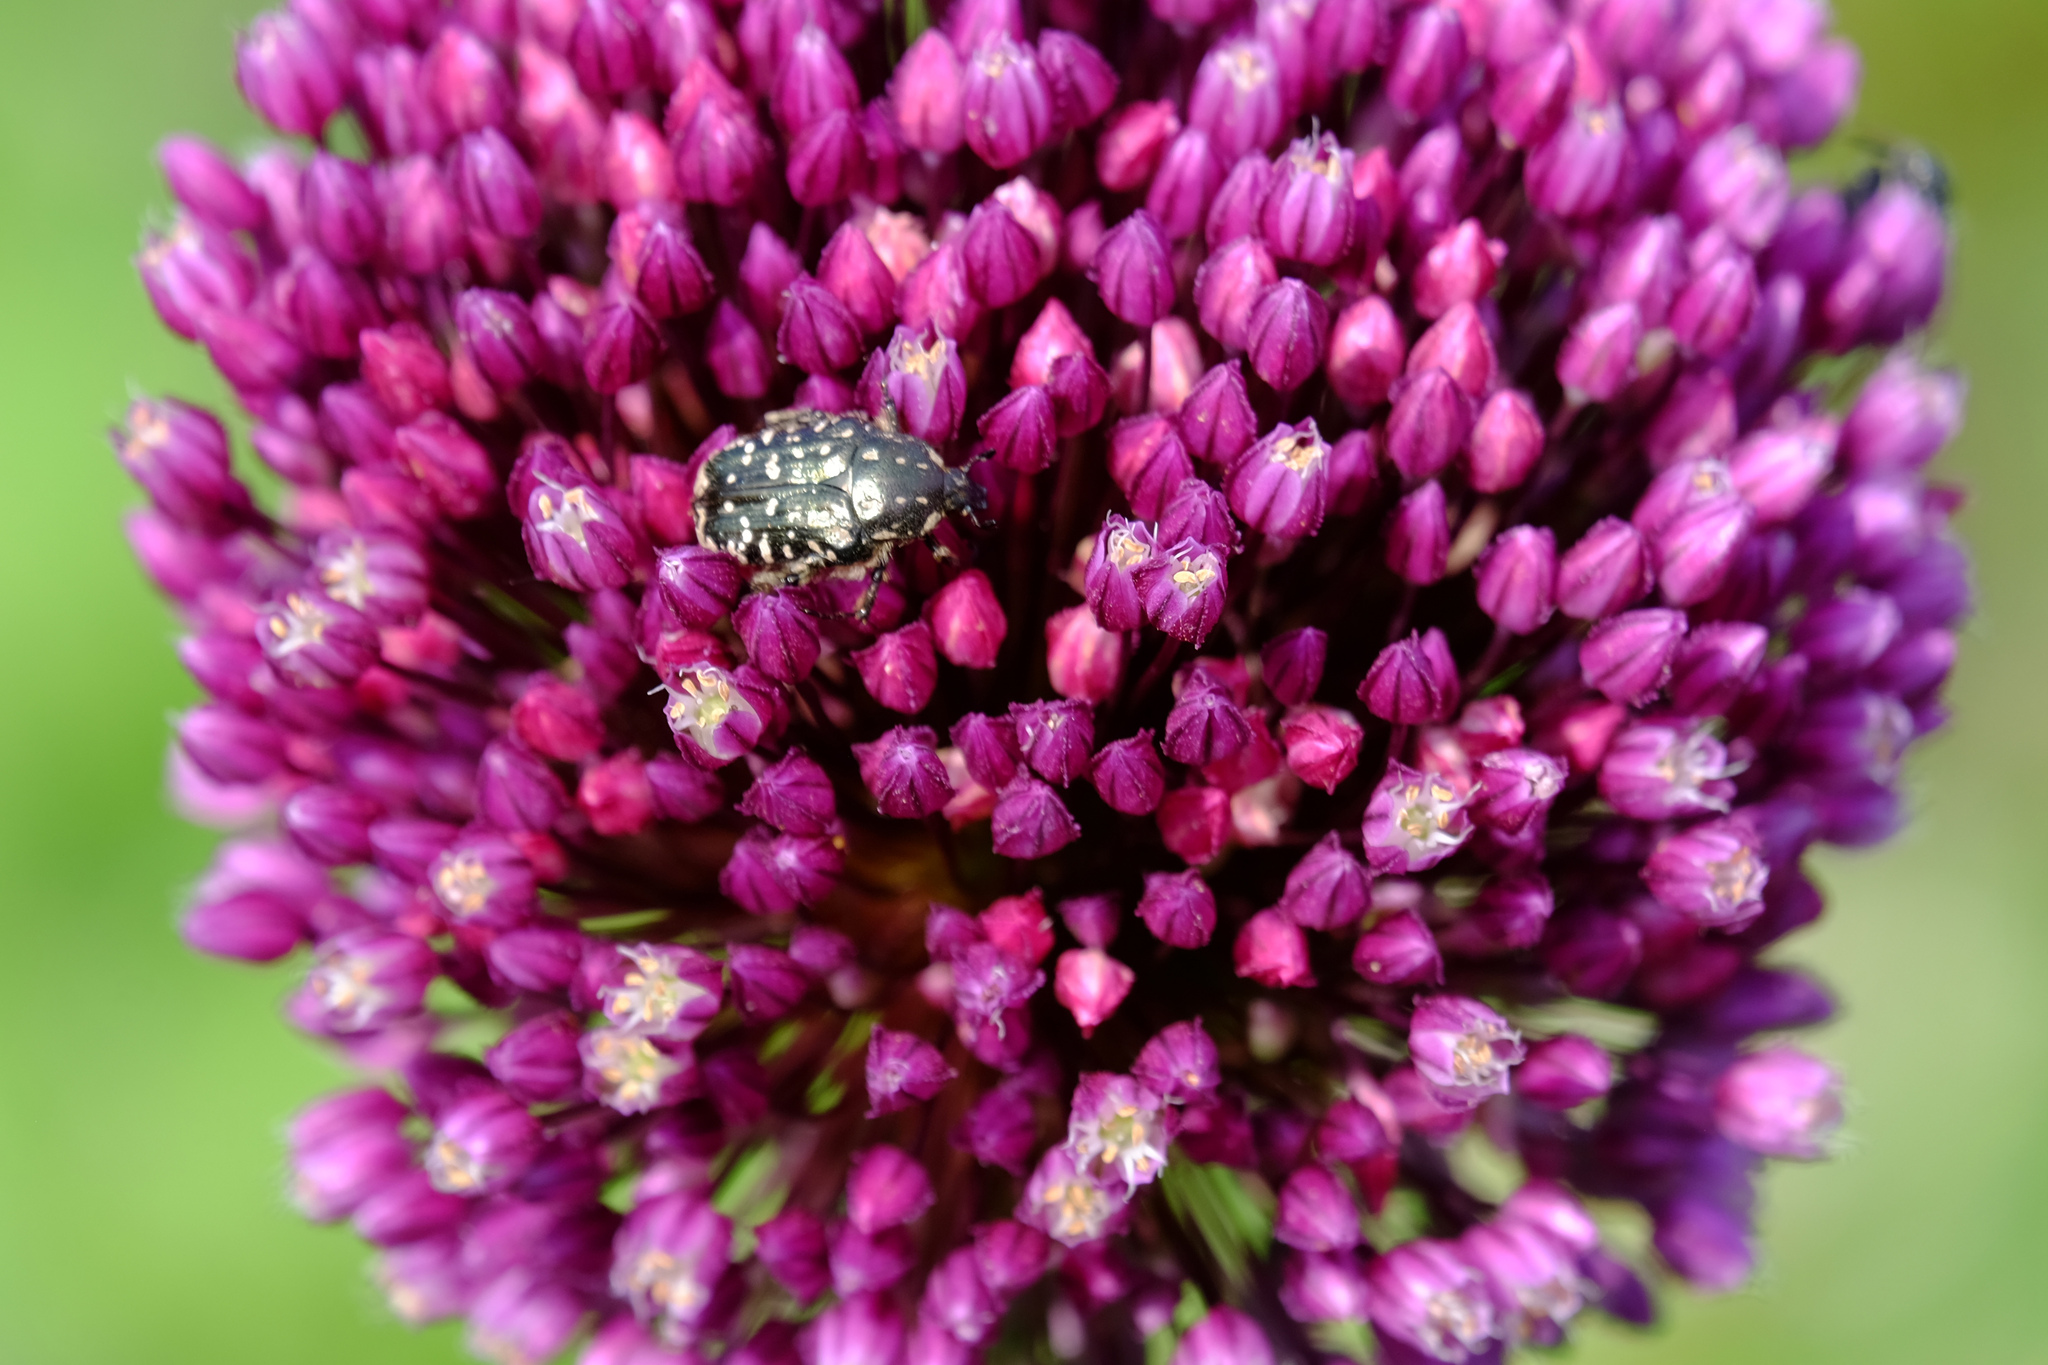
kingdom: Animalia
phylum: Arthropoda
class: Insecta
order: Coleoptera
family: Scarabaeidae
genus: Oxythyrea
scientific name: Oxythyrea funesta
